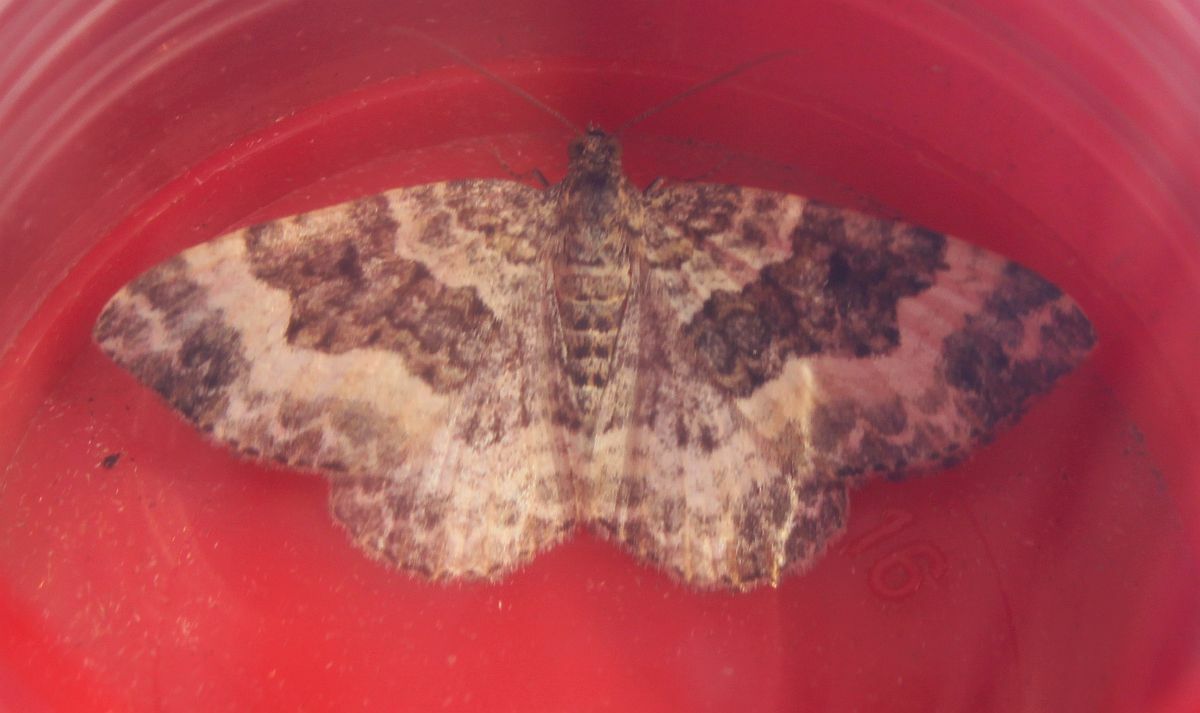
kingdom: Animalia
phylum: Arthropoda
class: Insecta
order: Lepidoptera
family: Geometridae
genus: Epirrhoe
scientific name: Epirrhoe alternata
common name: Common carpet
